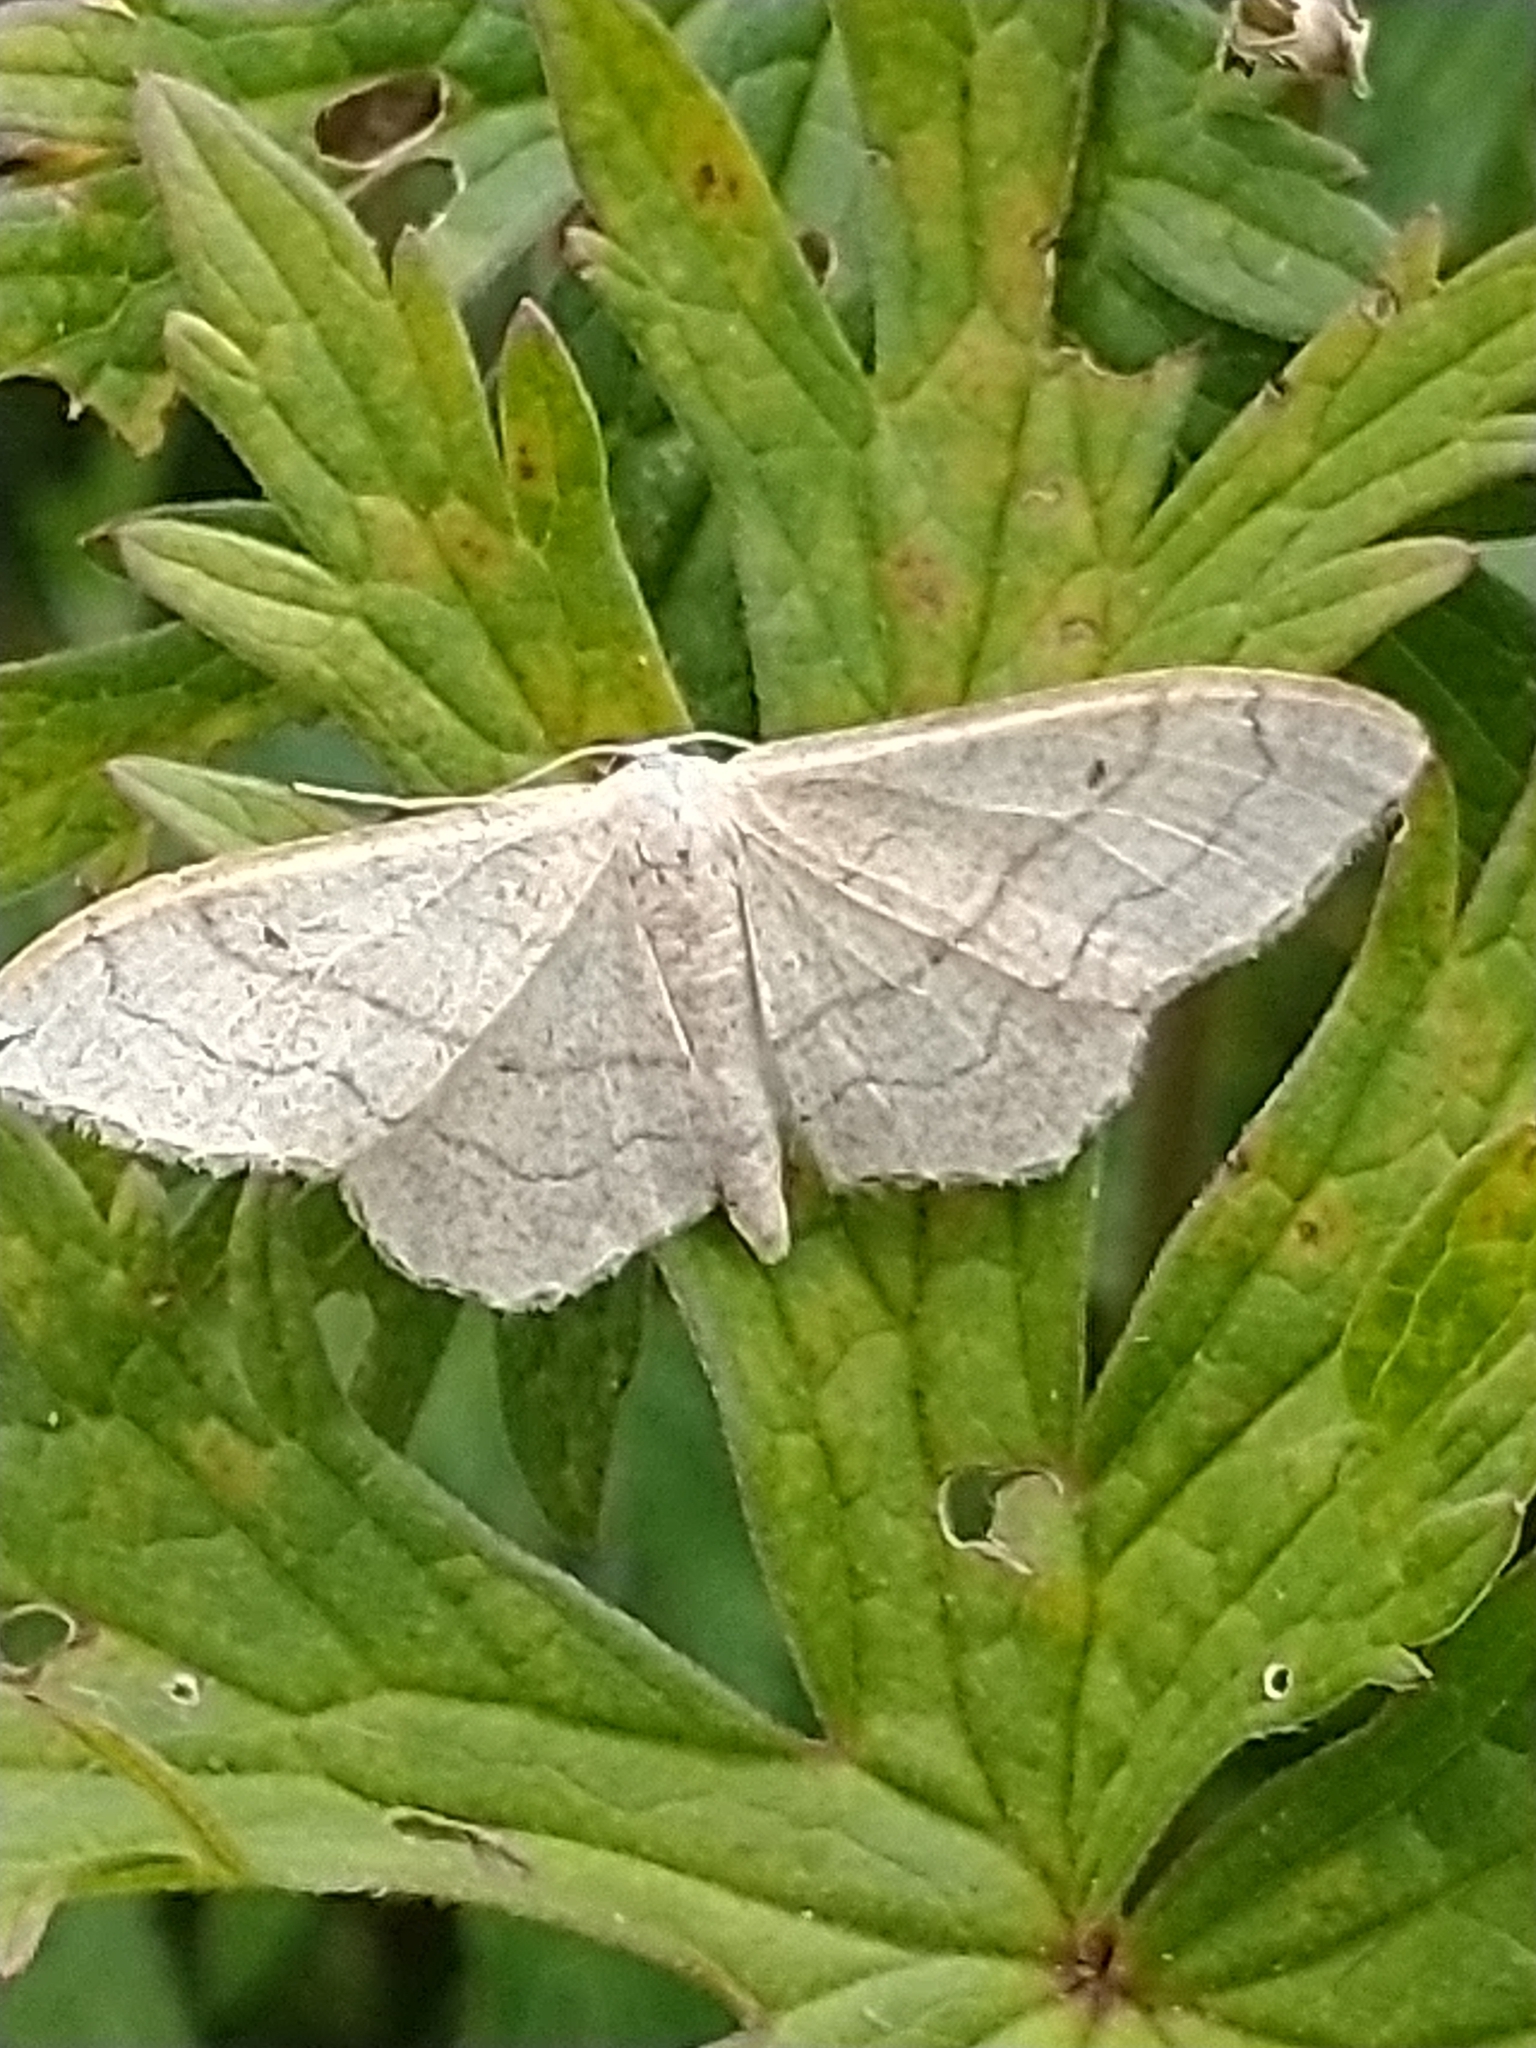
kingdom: Animalia
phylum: Arthropoda
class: Insecta
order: Lepidoptera
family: Geometridae
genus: Idaea
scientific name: Idaea aversata
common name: Riband wave
